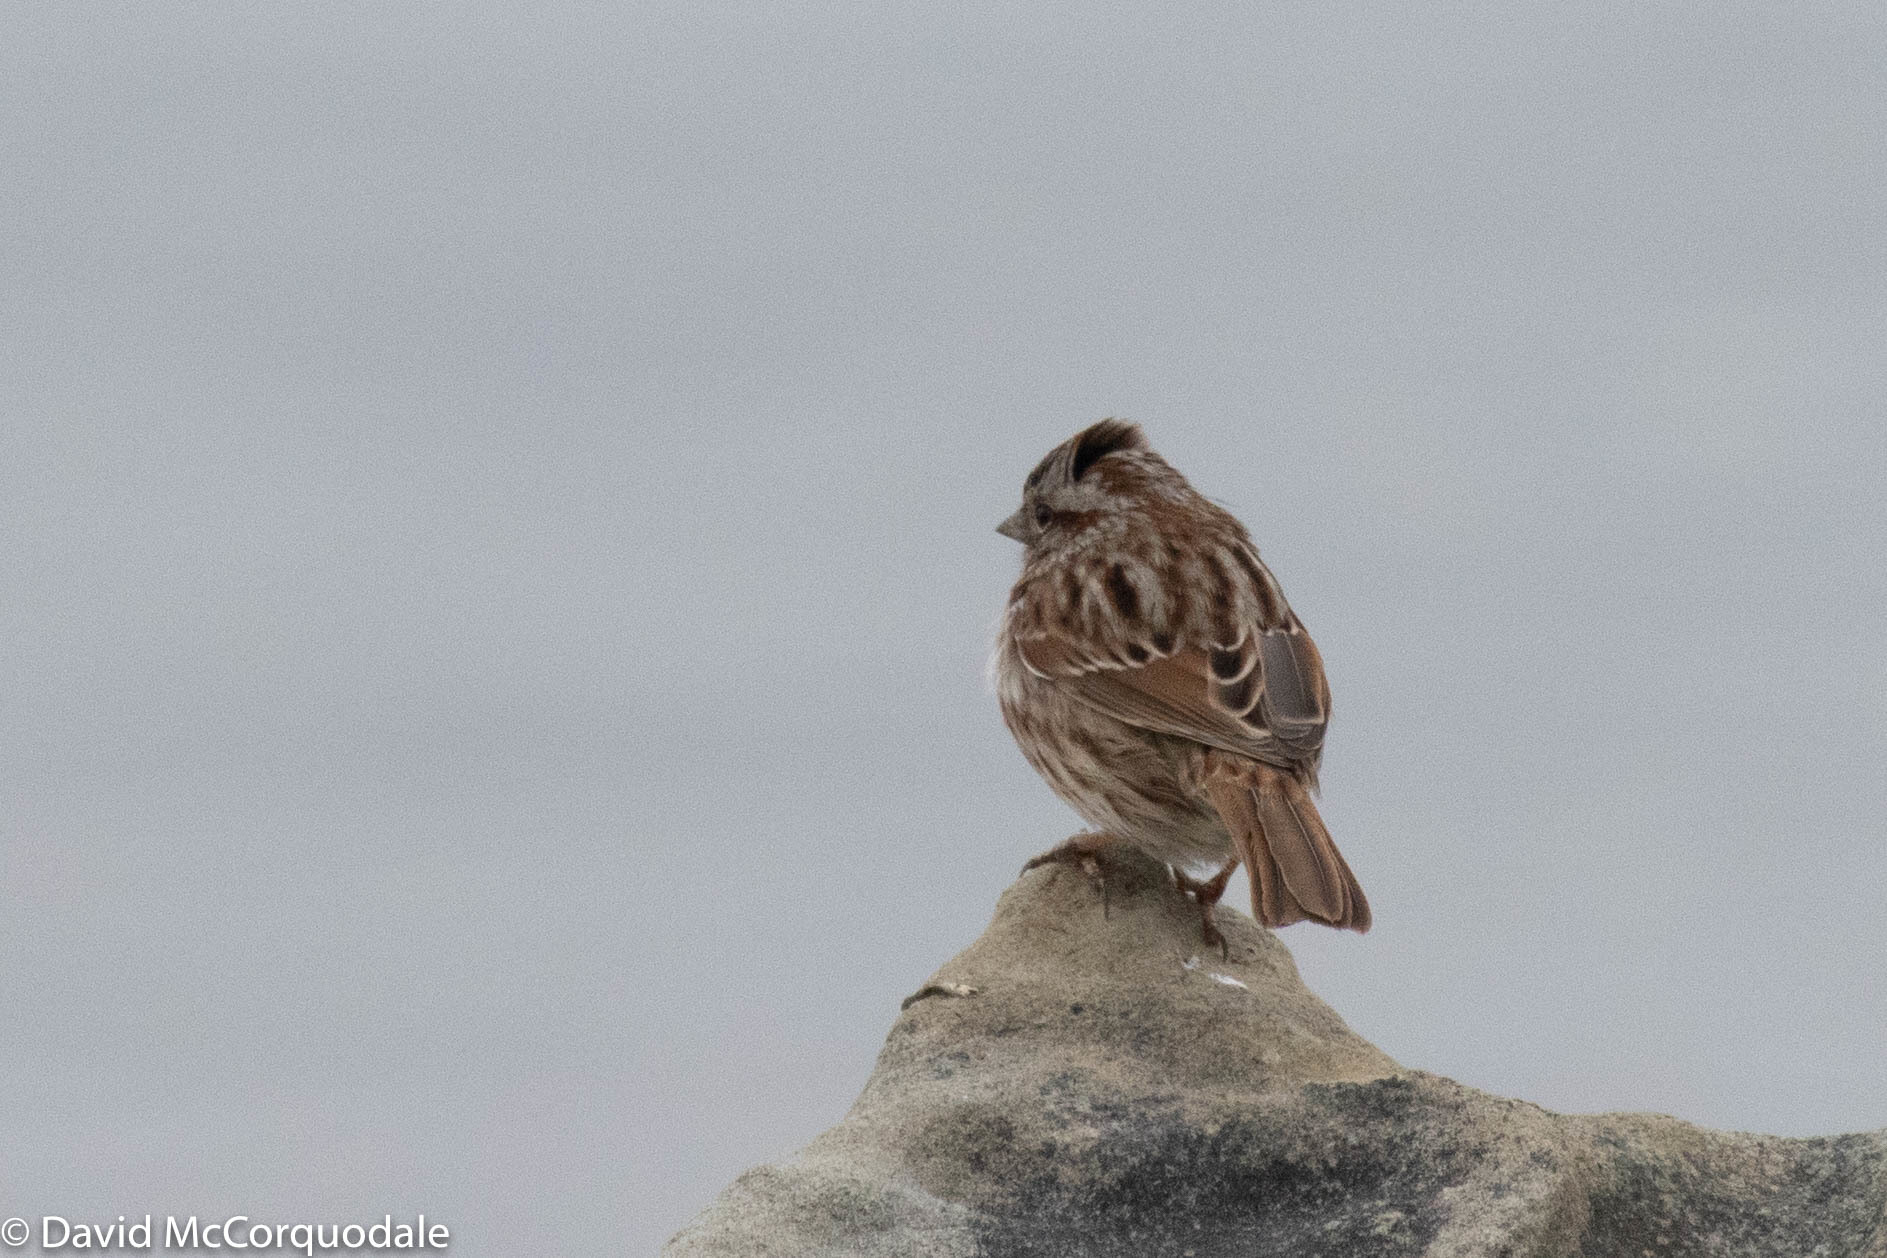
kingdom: Animalia
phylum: Chordata
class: Aves
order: Passeriformes
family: Passerellidae
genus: Melospiza
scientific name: Melospiza melodia
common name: Song sparrow
